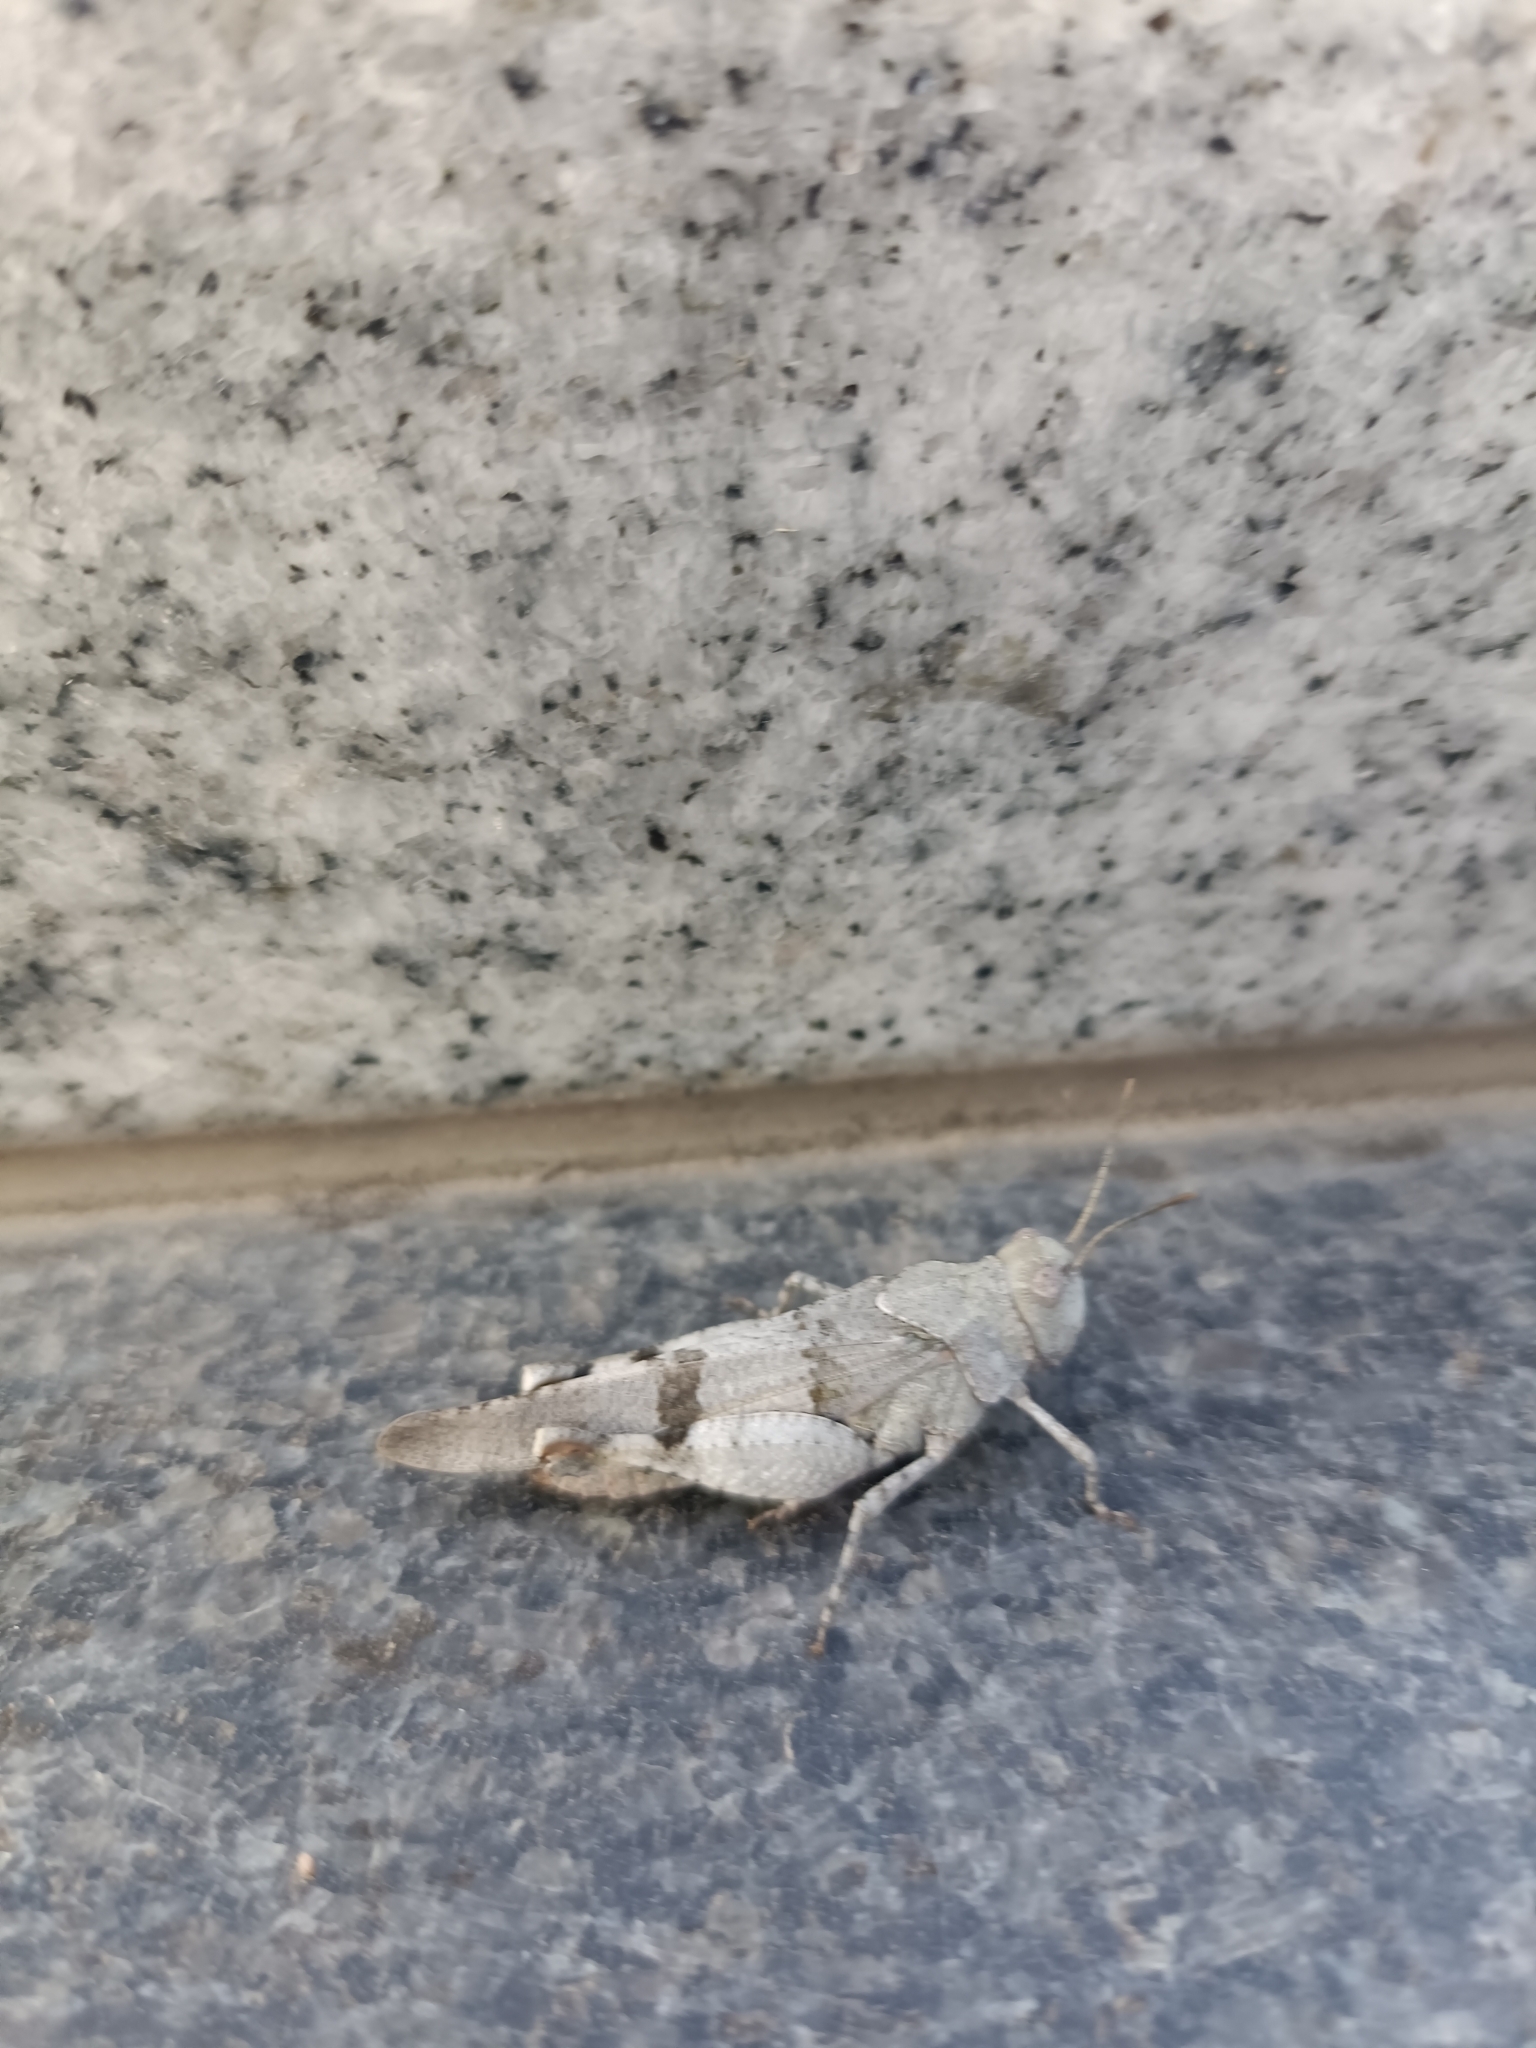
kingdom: Animalia
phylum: Arthropoda
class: Insecta
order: Orthoptera
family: Acrididae
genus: Oedipoda
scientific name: Oedipoda caerulescens
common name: Blue-winged grasshopper
